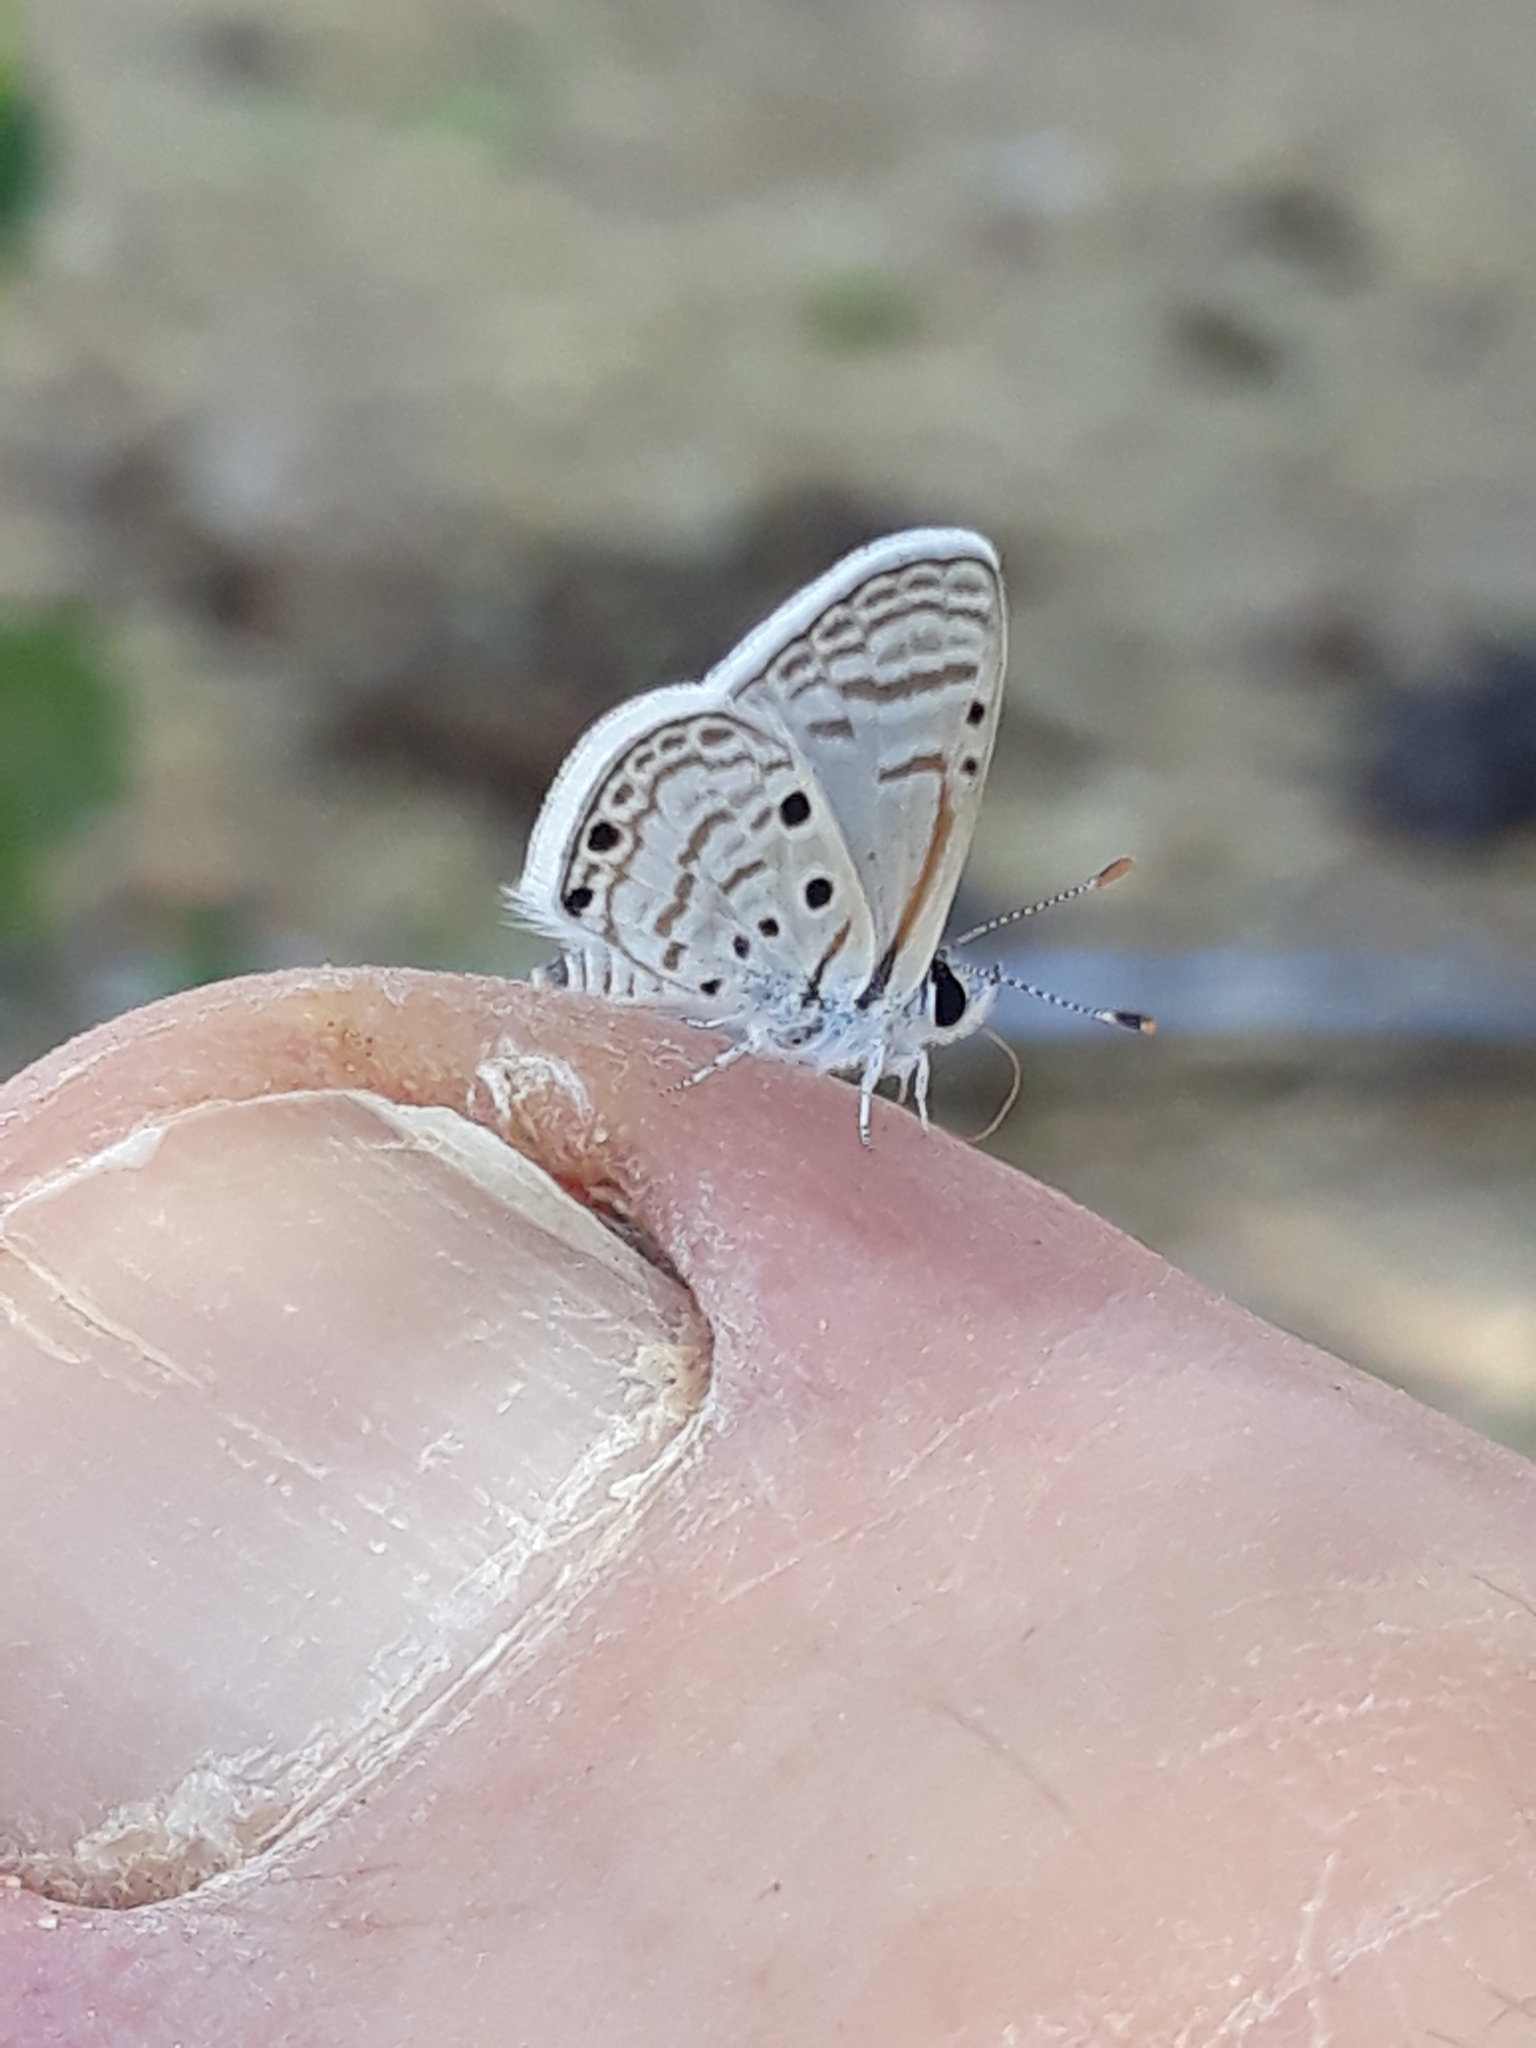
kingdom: Animalia
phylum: Arthropoda
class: Insecta
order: Lepidoptera
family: Lycaenidae
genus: Azanus
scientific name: Azanus ubaldus
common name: Desert babul blue
